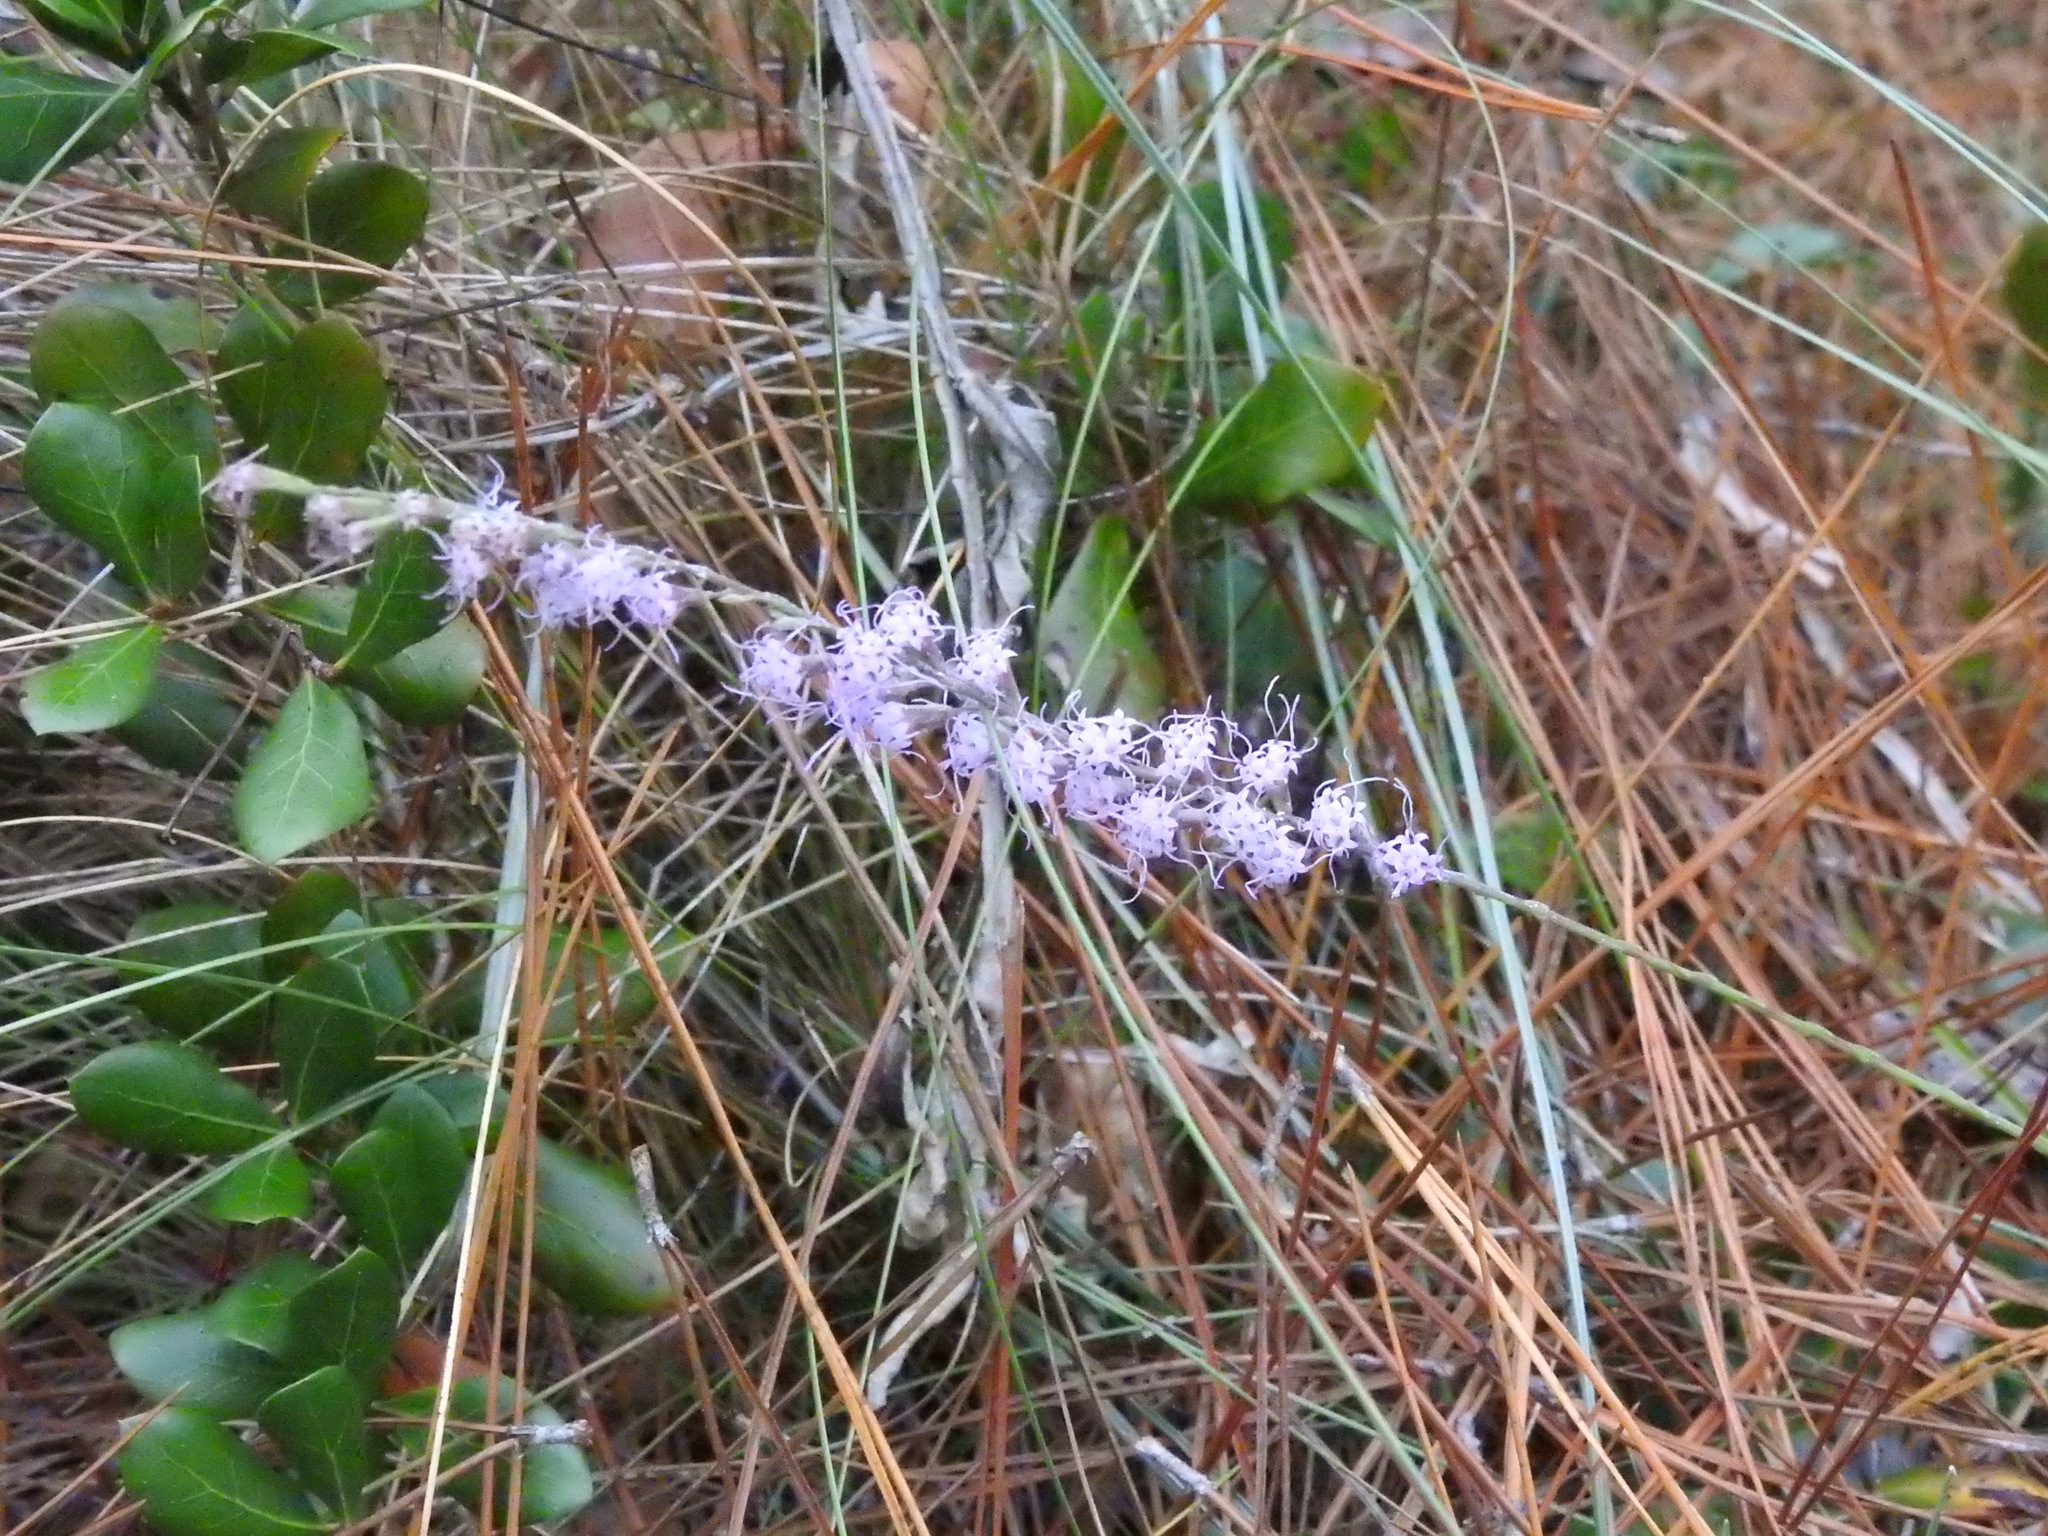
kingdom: Plantae
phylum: Tracheophyta
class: Magnoliopsida
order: Asterales
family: Asteraceae
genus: Liatris
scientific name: Liatris tenuifolia
